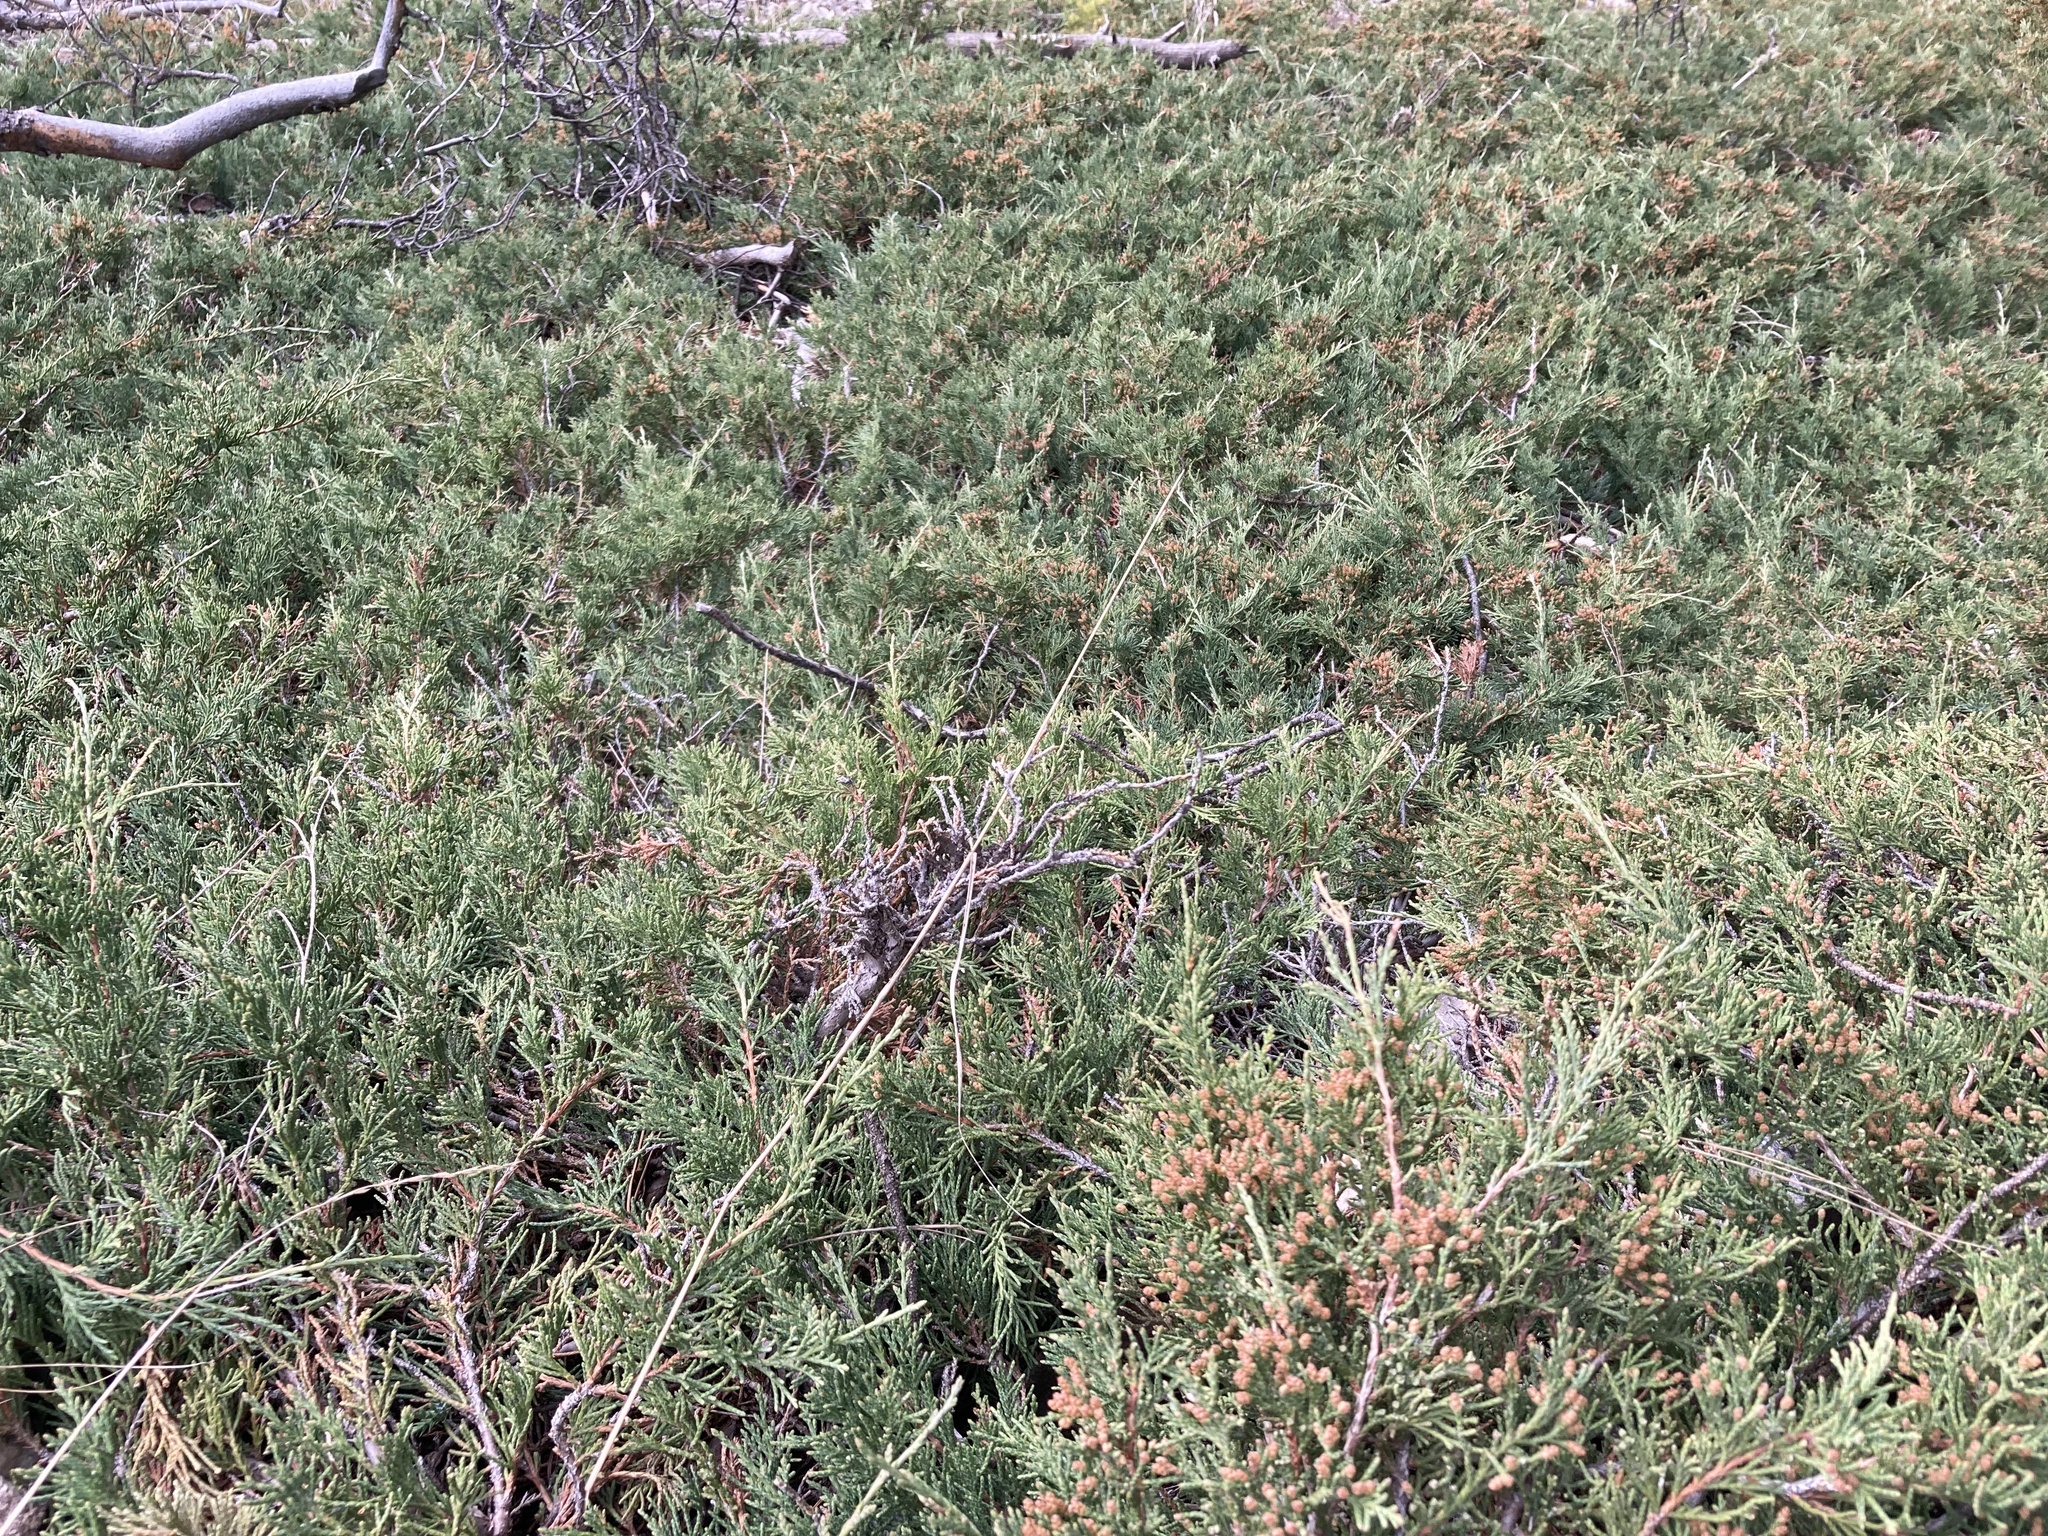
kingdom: Plantae
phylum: Tracheophyta
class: Pinopsida
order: Pinales
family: Cupressaceae
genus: Juniperus
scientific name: Juniperus horizontalis
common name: Creeping juniper
